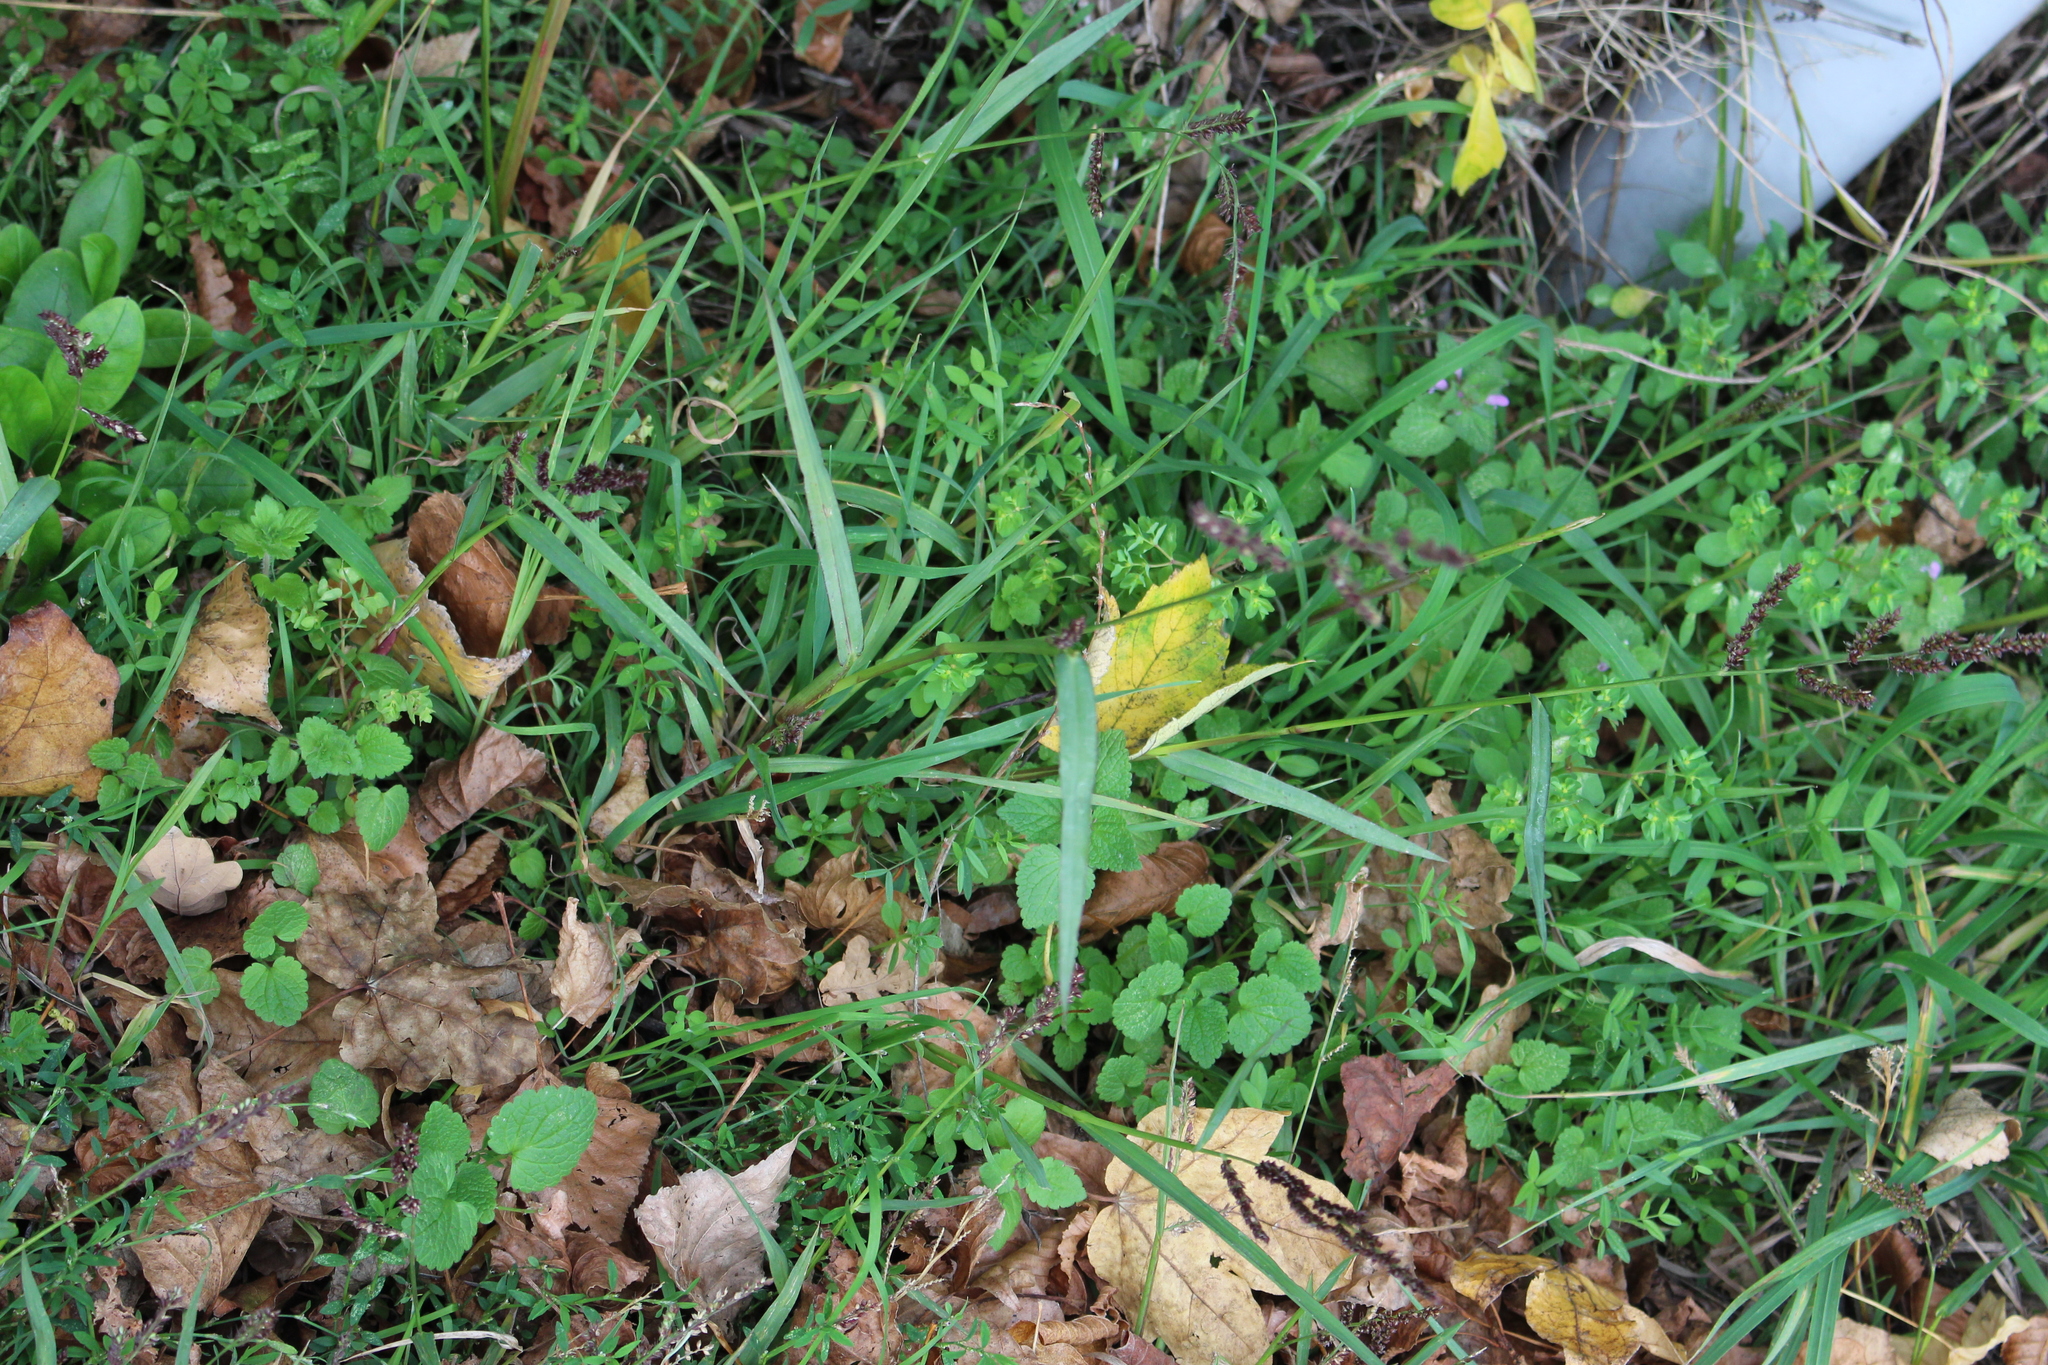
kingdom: Plantae
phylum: Tracheophyta
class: Liliopsida
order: Poales
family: Poaceae
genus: Echinochloa
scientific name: Echinochloa crus-galli
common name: Cockspur
